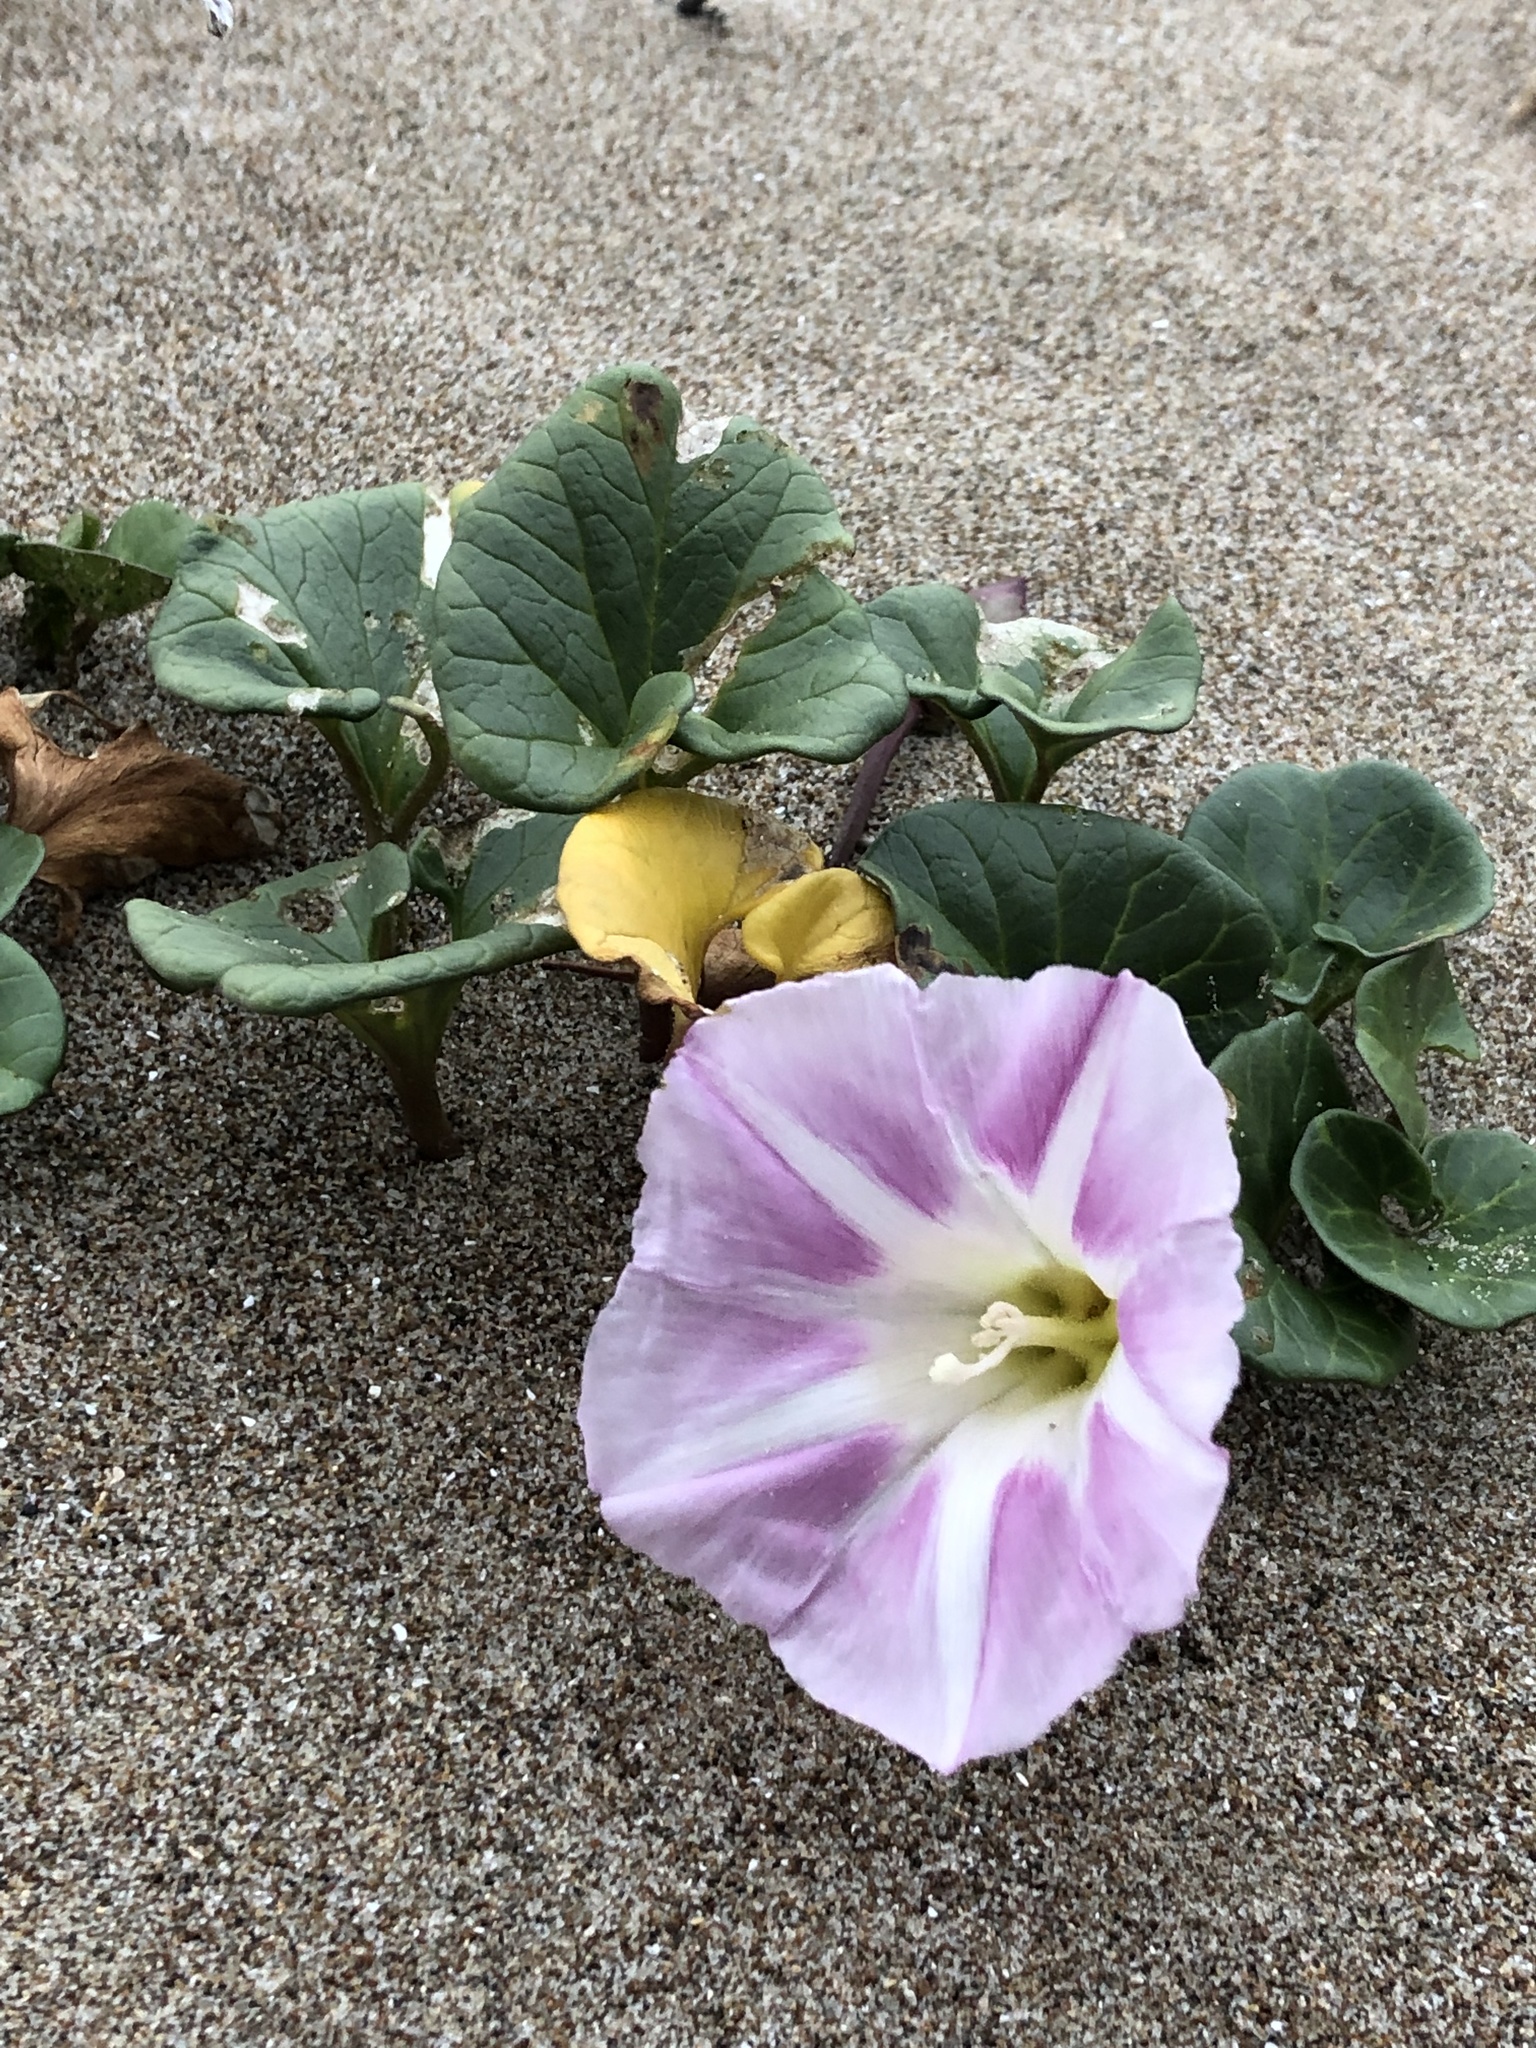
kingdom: Plantae
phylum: Tracheophyta
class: Magnoliopsida
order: Solanales
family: Convolvulaceae
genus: Calystegia
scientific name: Calystegia soldanella
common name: Sea bindweed
